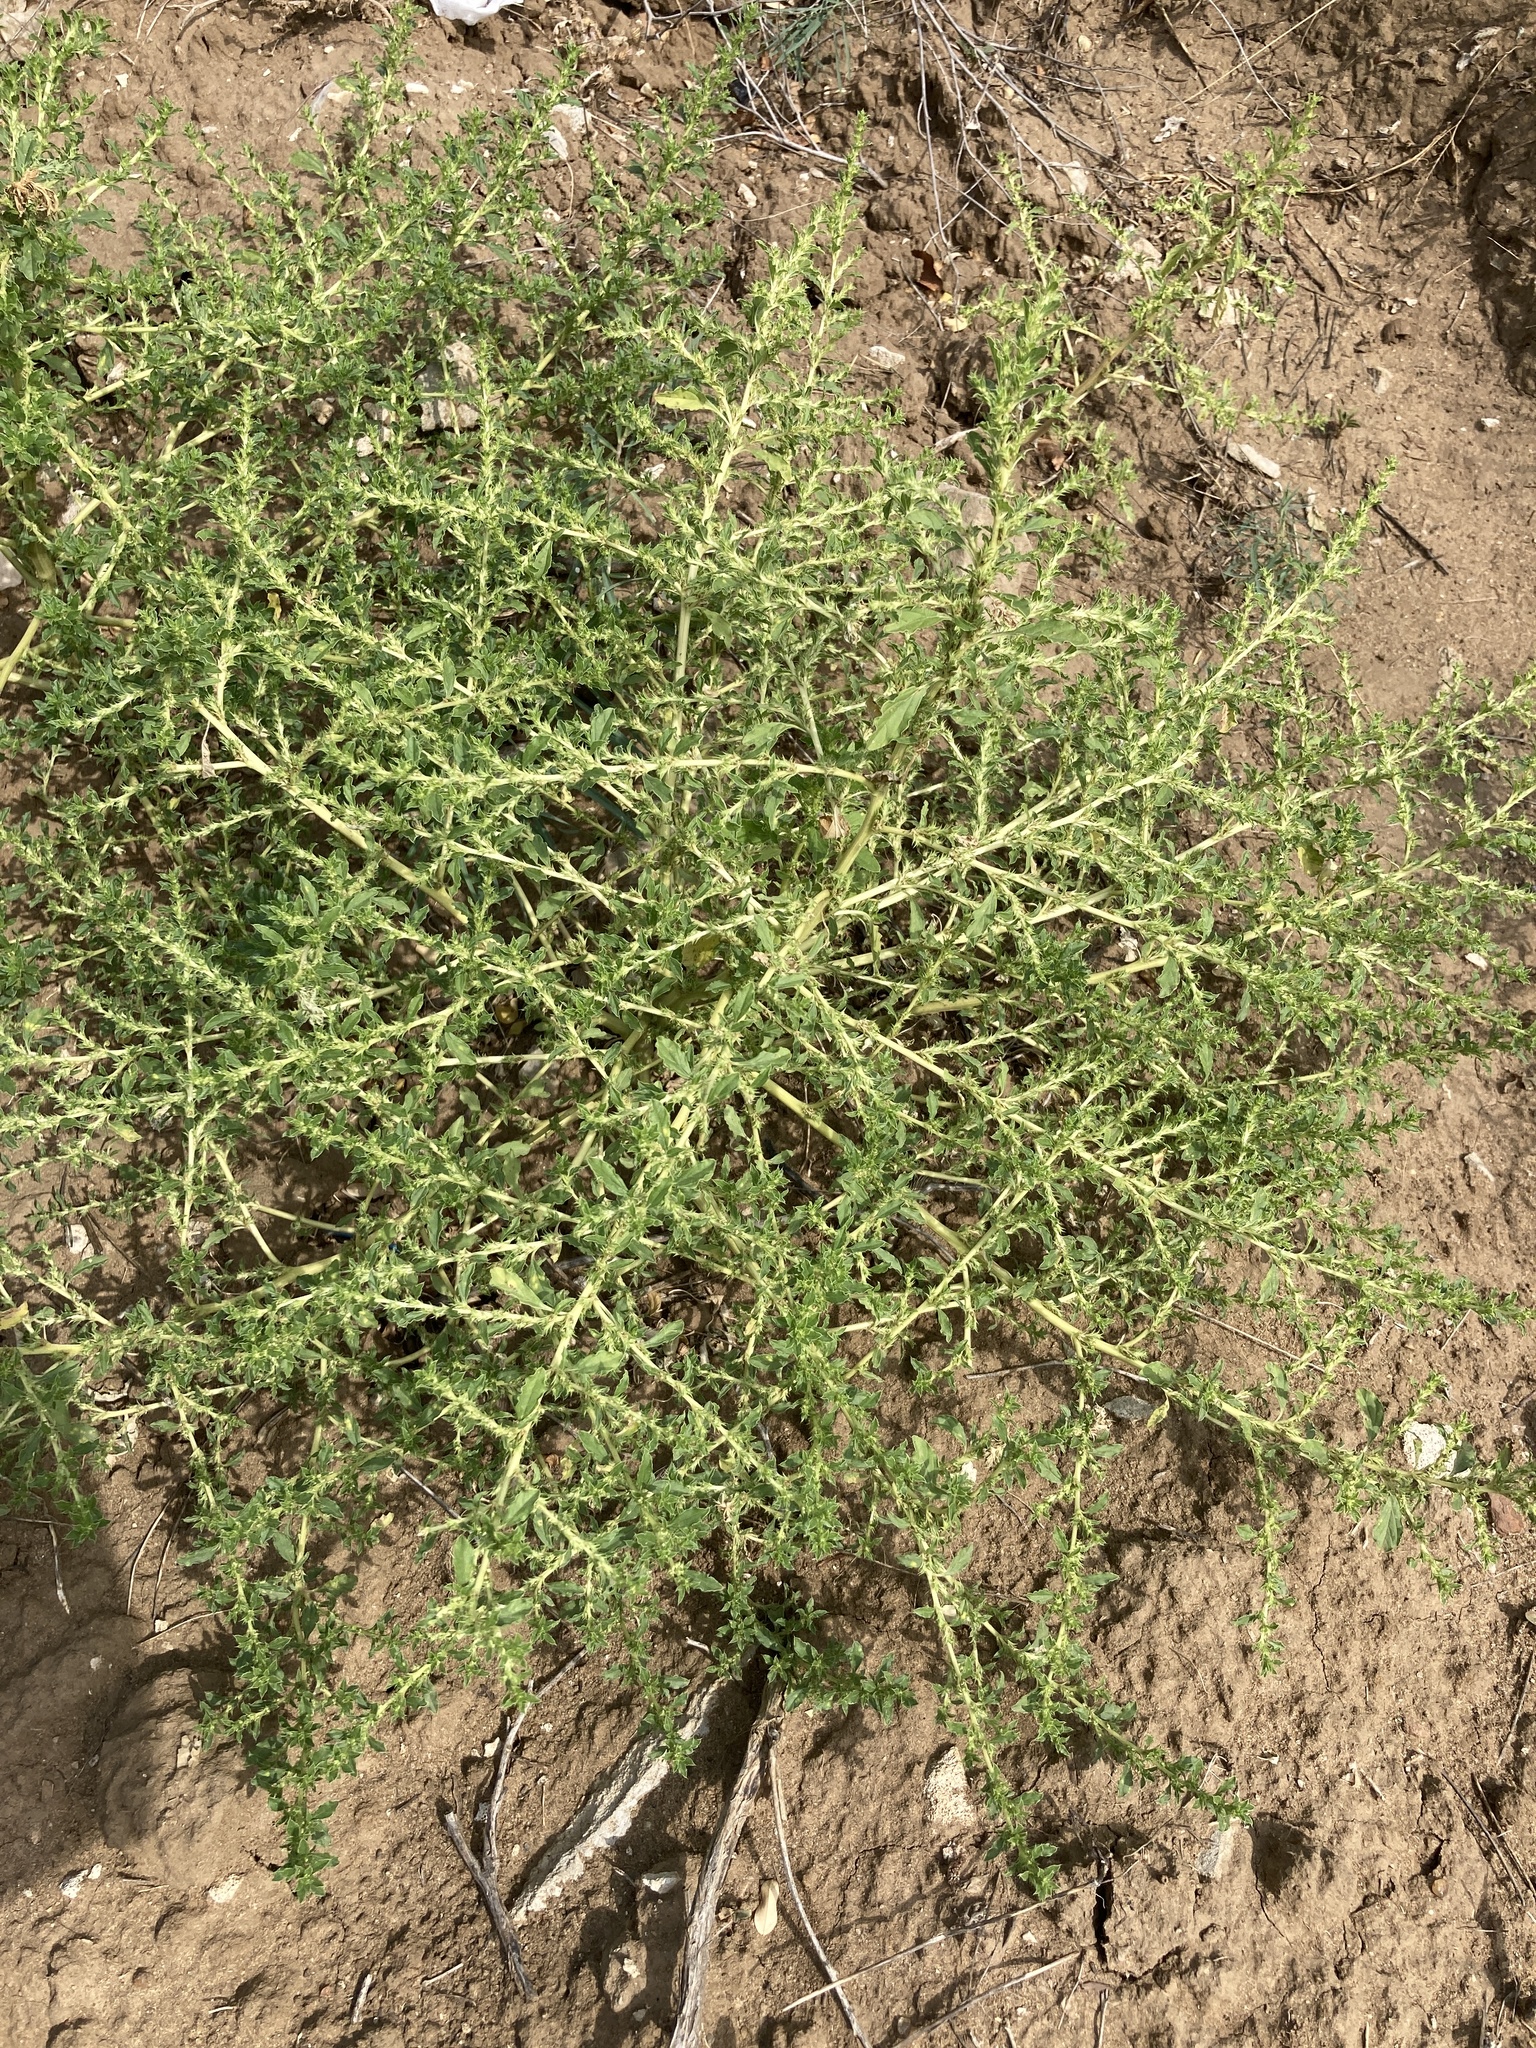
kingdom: Plantae
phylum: Tracheophyta
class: Magnoliopsida
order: Caryophyllales
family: Amaranthaceae
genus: Amaranthus
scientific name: Amaranthus albus
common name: White pigweed
